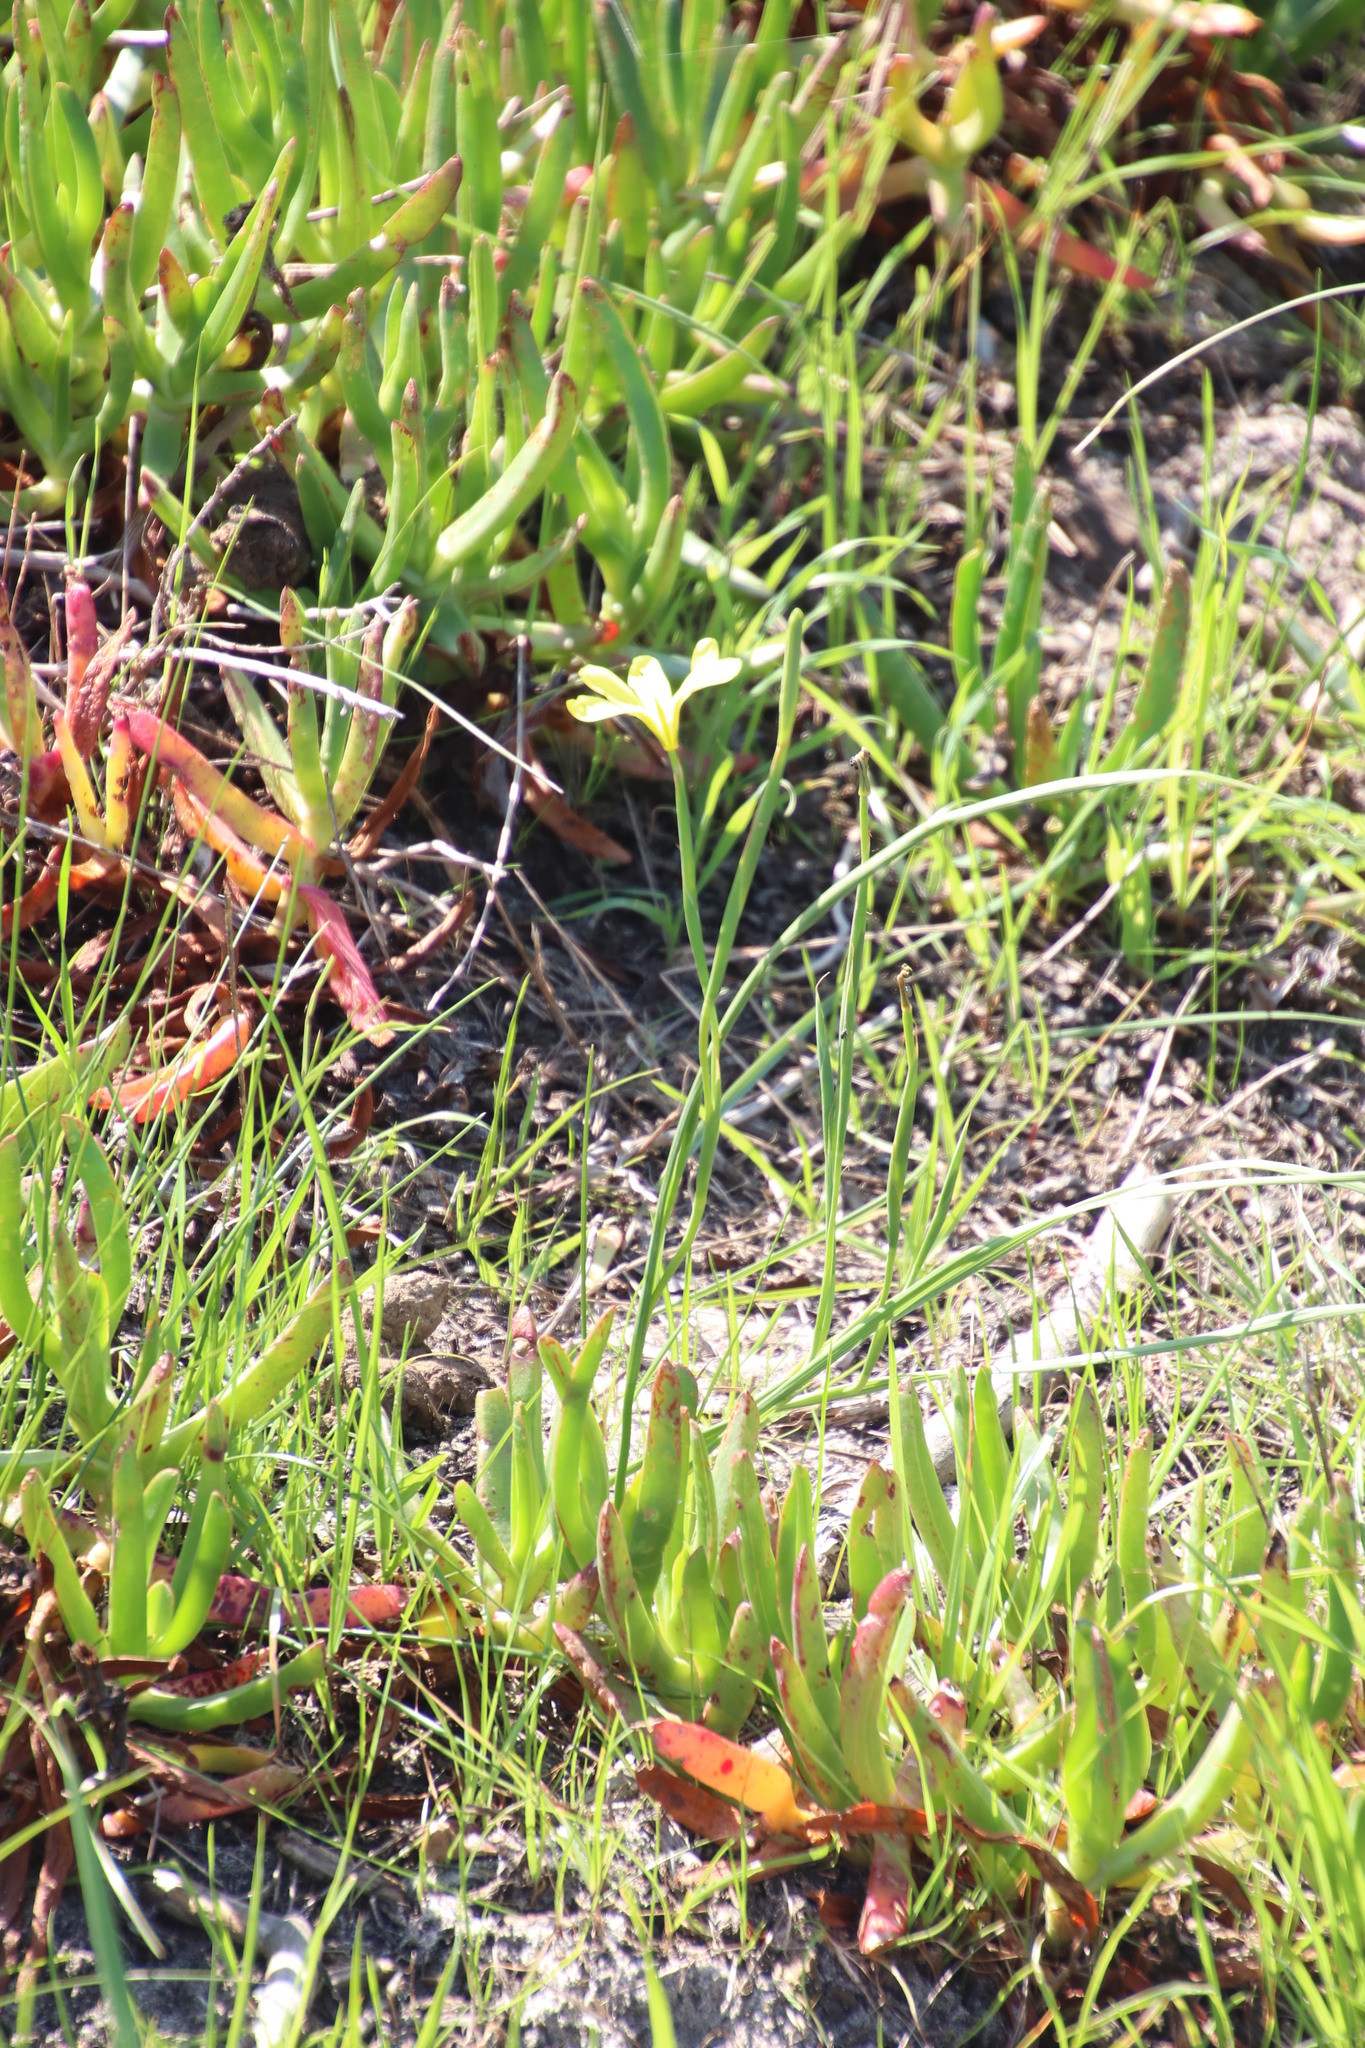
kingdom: Plantae
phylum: Tracheophyta
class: Liliopsida
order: Asparagales
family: Iridaceae
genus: Moraea
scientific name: Moraea collina
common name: Cape-tulip
